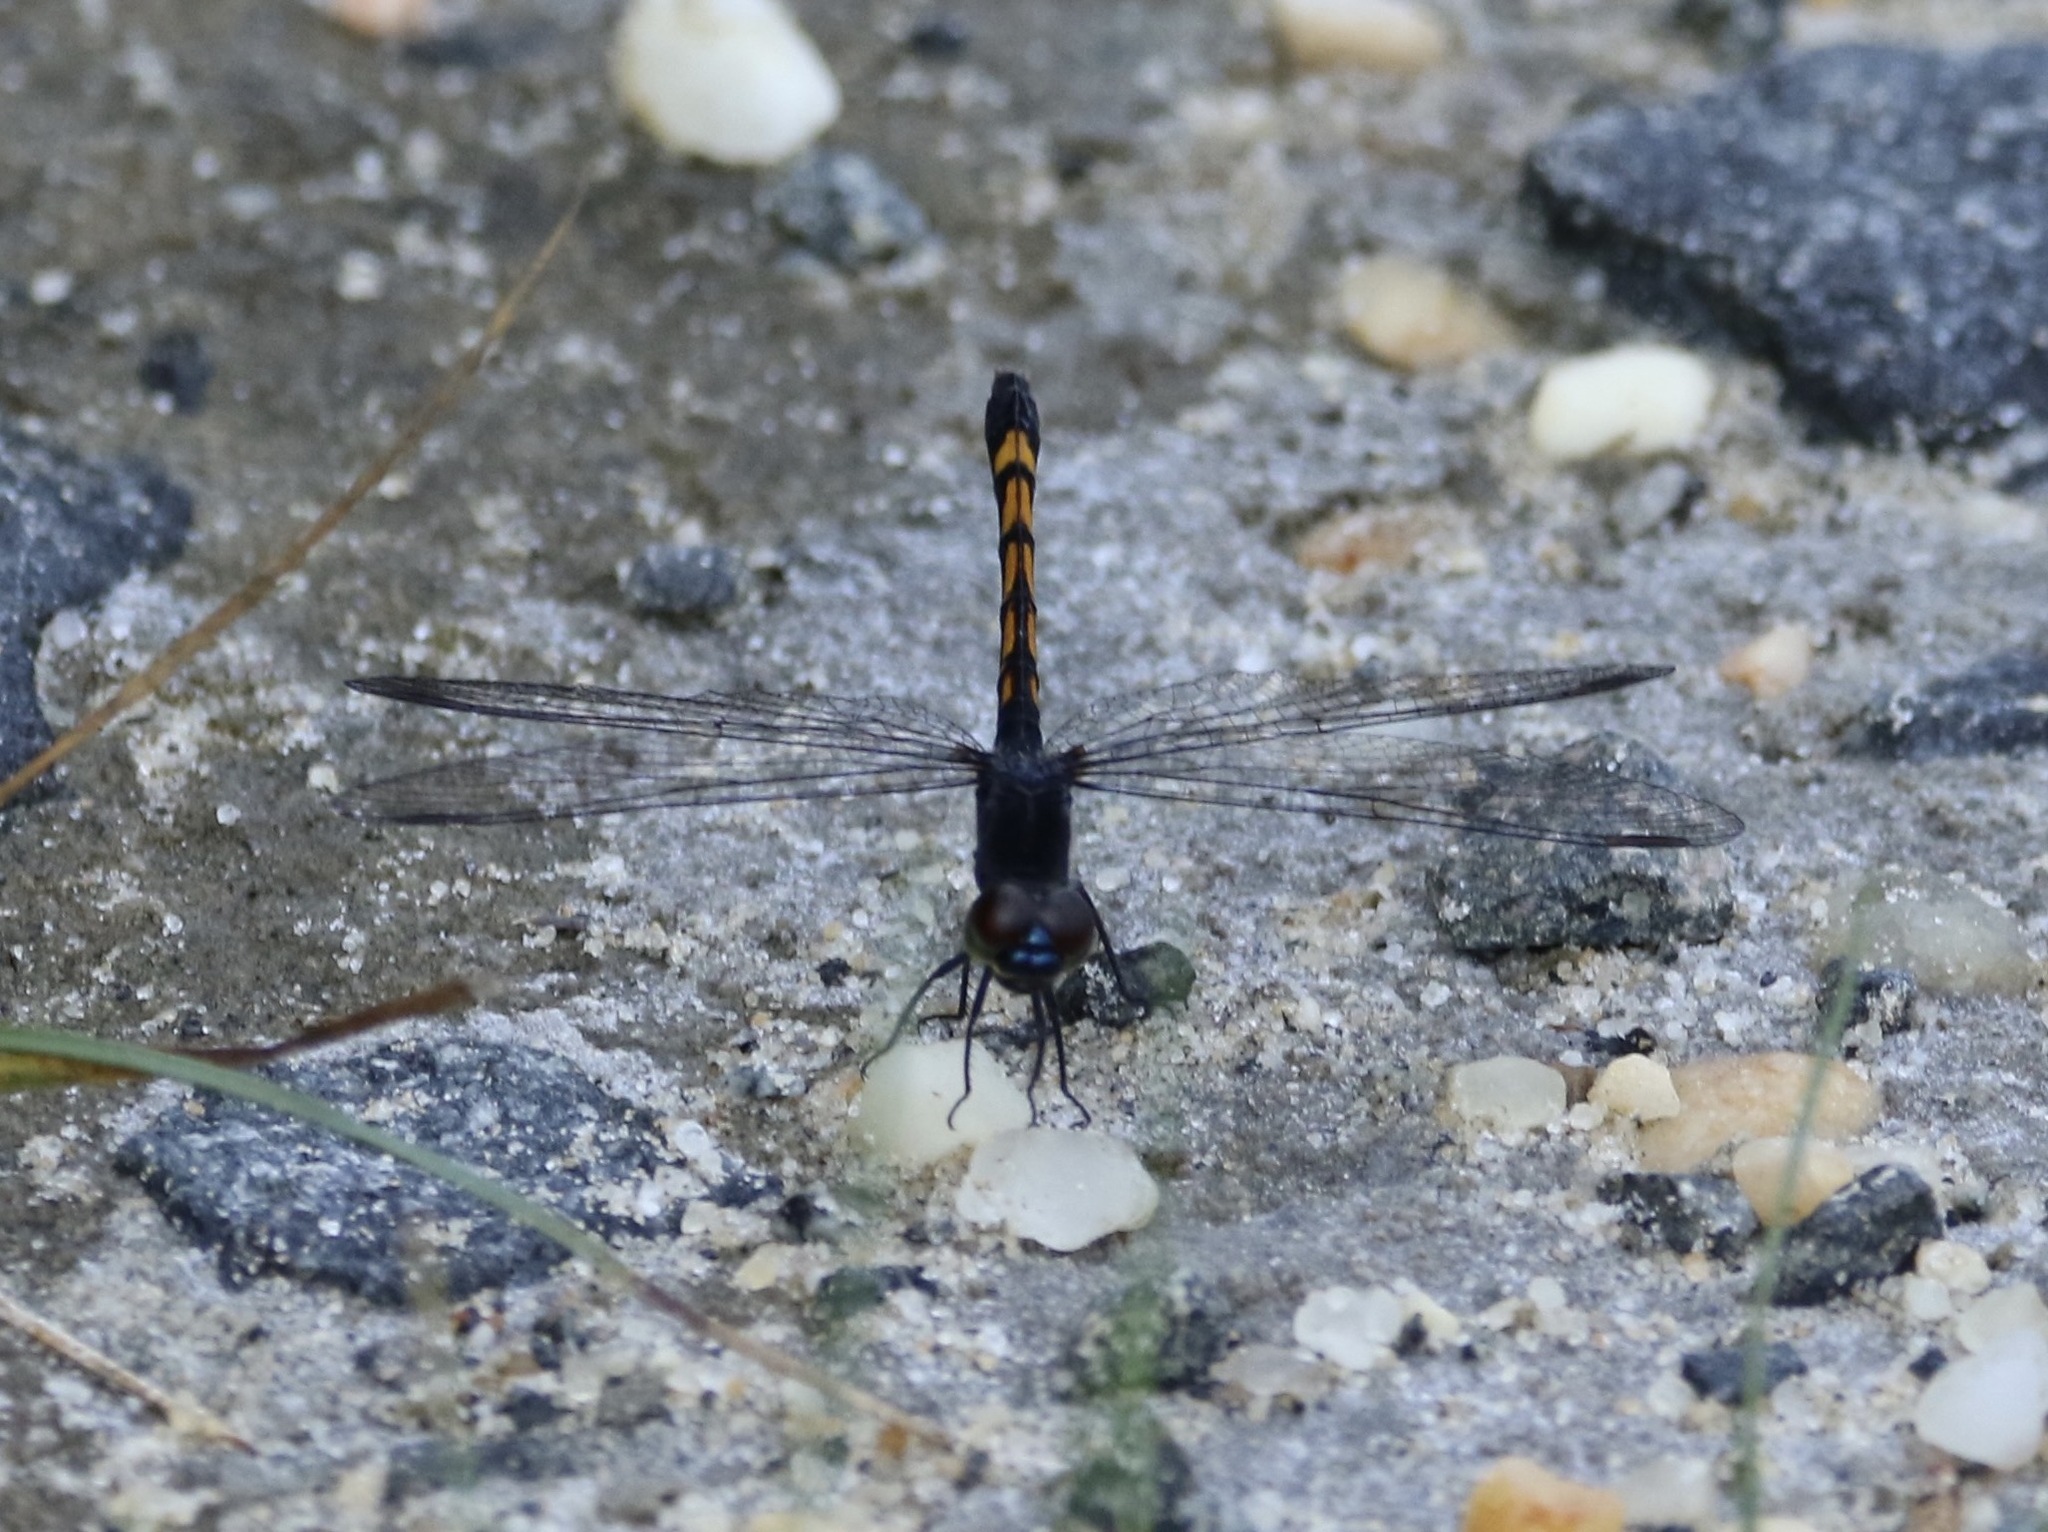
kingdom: Animalia
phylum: Arthropoda
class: Insecta
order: Odonata
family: Libellulidae
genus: Erythrodiplax
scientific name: Erythrodiplax berenice
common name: Seaside dragonlet
